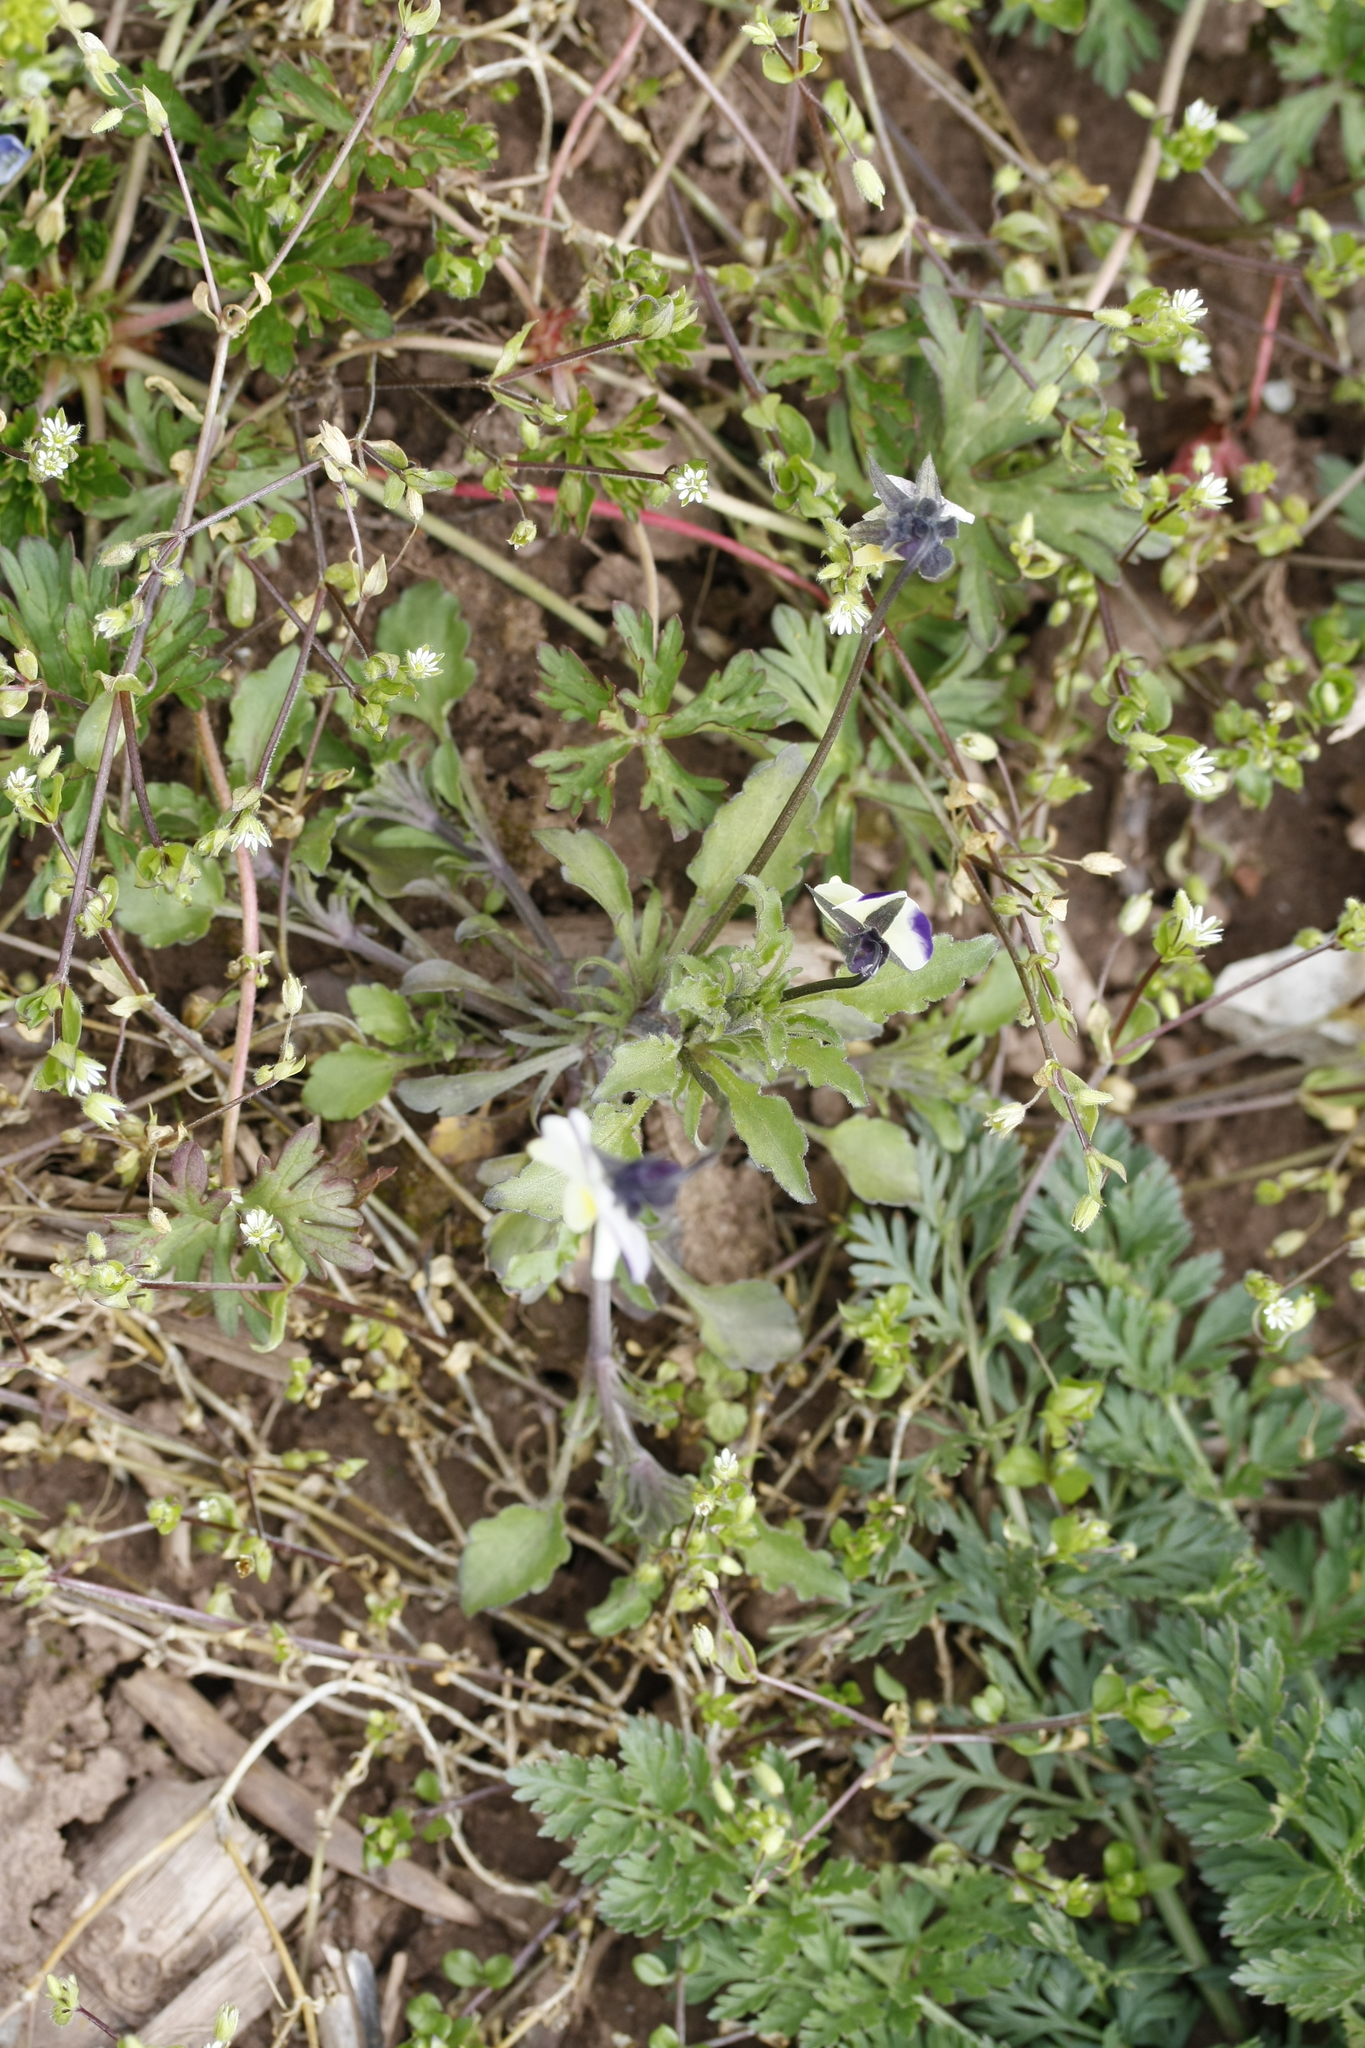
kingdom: Plantae
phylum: Tracheophyta
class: Magnoliopsida
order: Malpighiales
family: Violaceae
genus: Viola
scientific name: Viola tricolor
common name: Pansy
